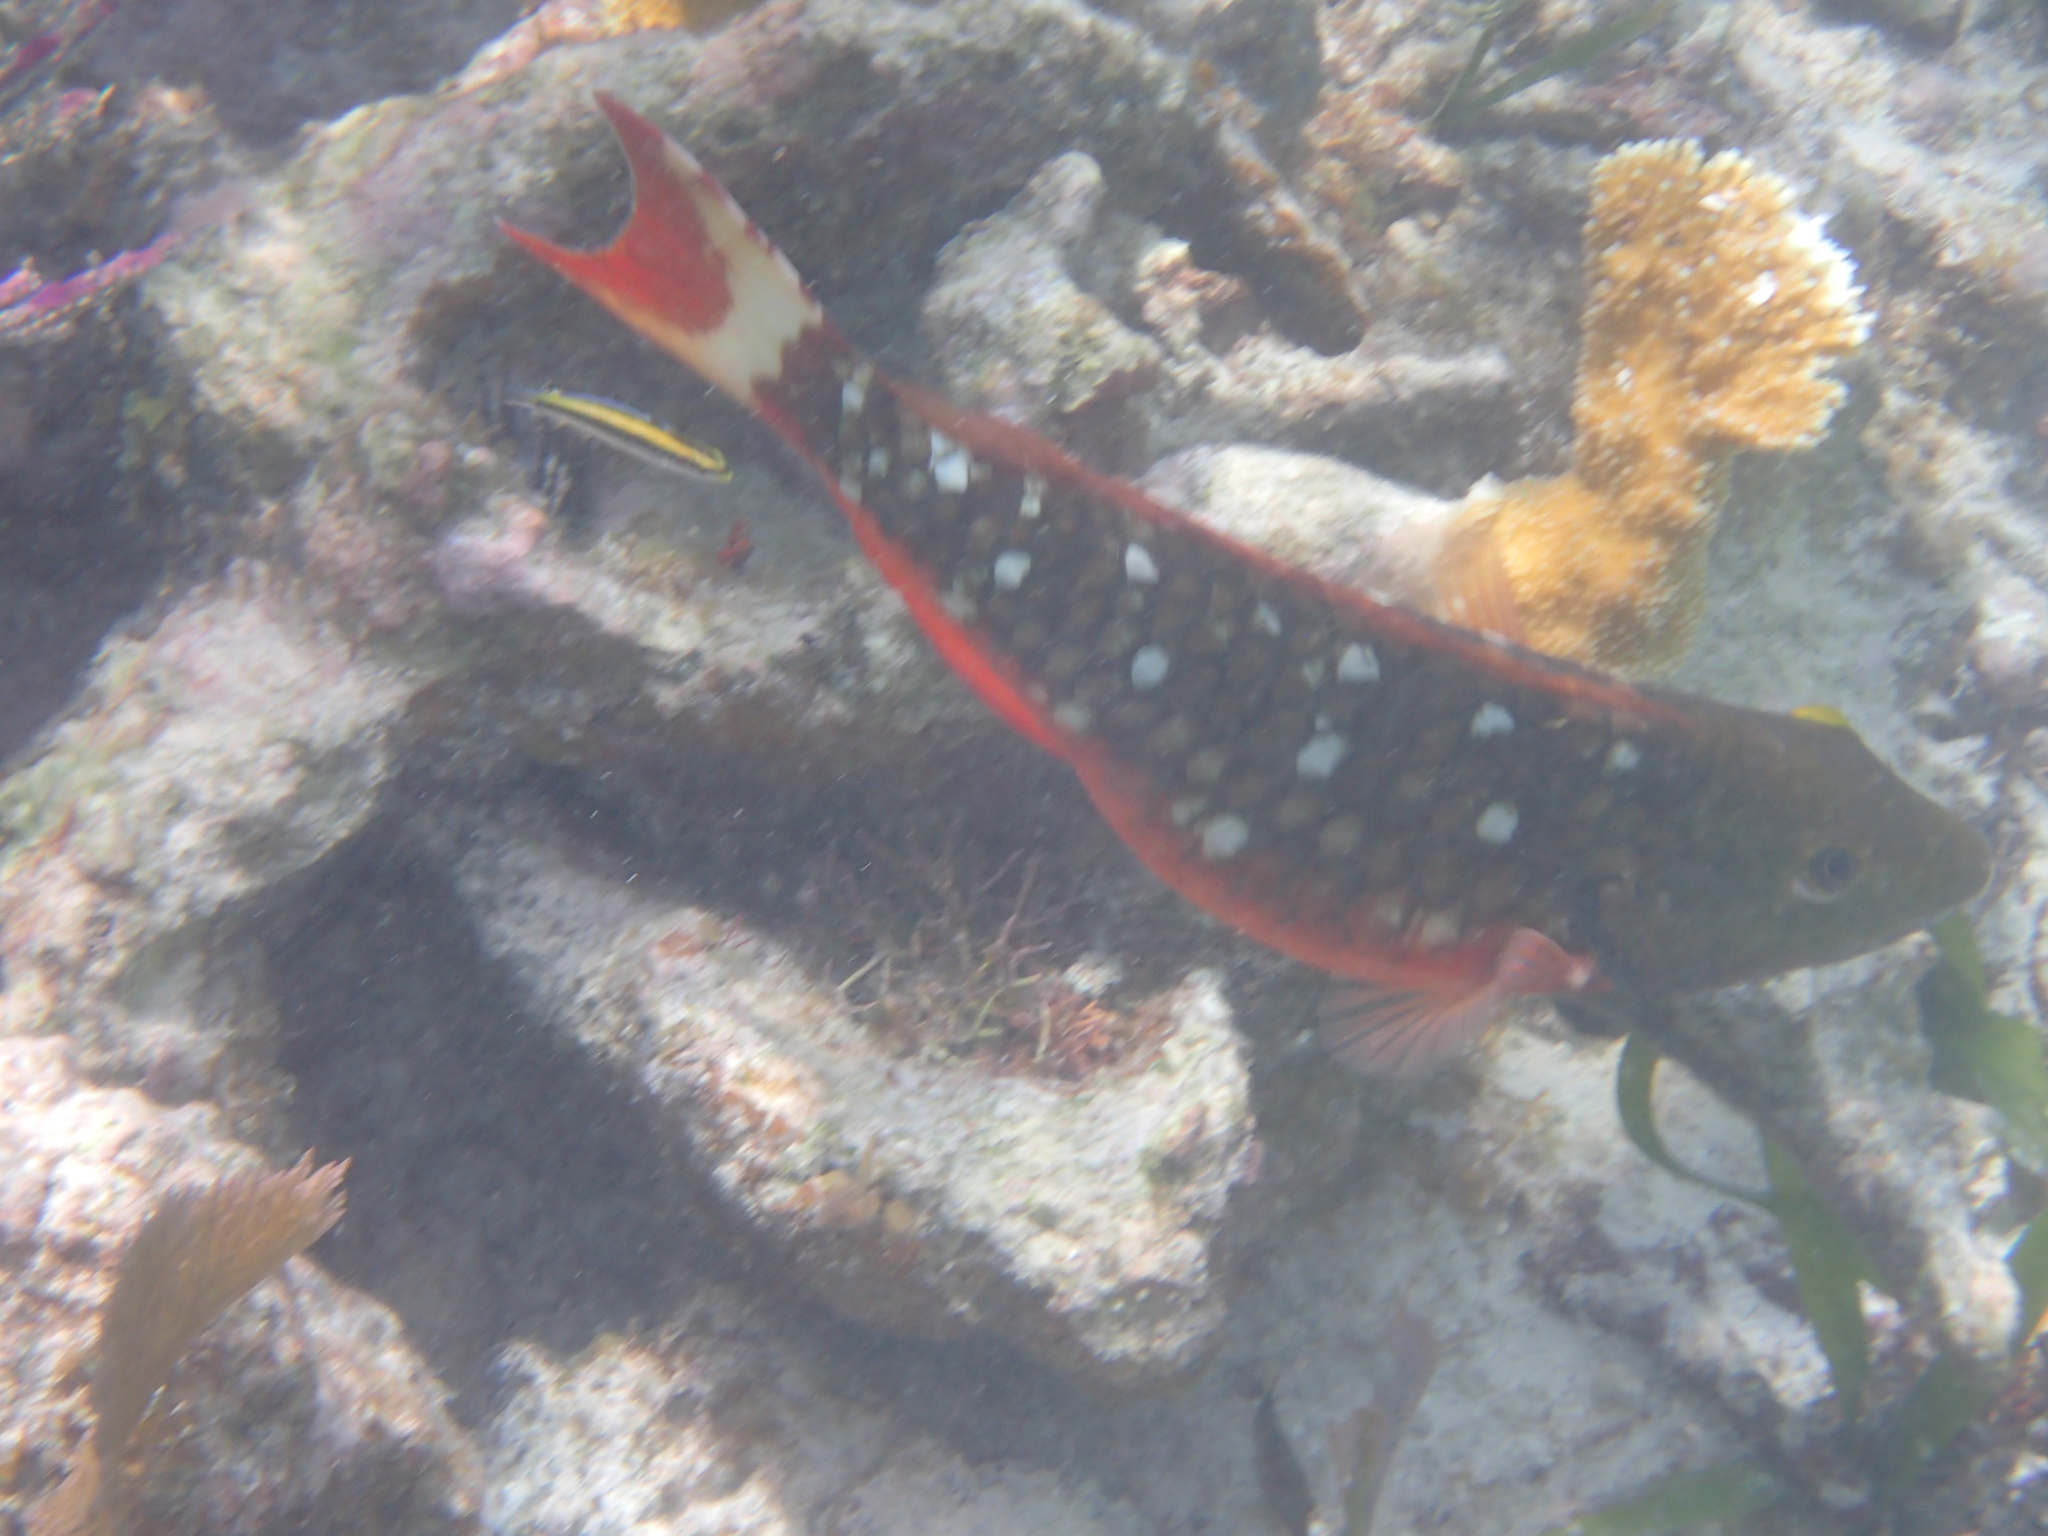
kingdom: Animalia
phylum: Chordata
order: Perciformes
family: Scaridae
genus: Sparisoma
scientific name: Sparisoma viride
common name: Stoplight parrotfish
